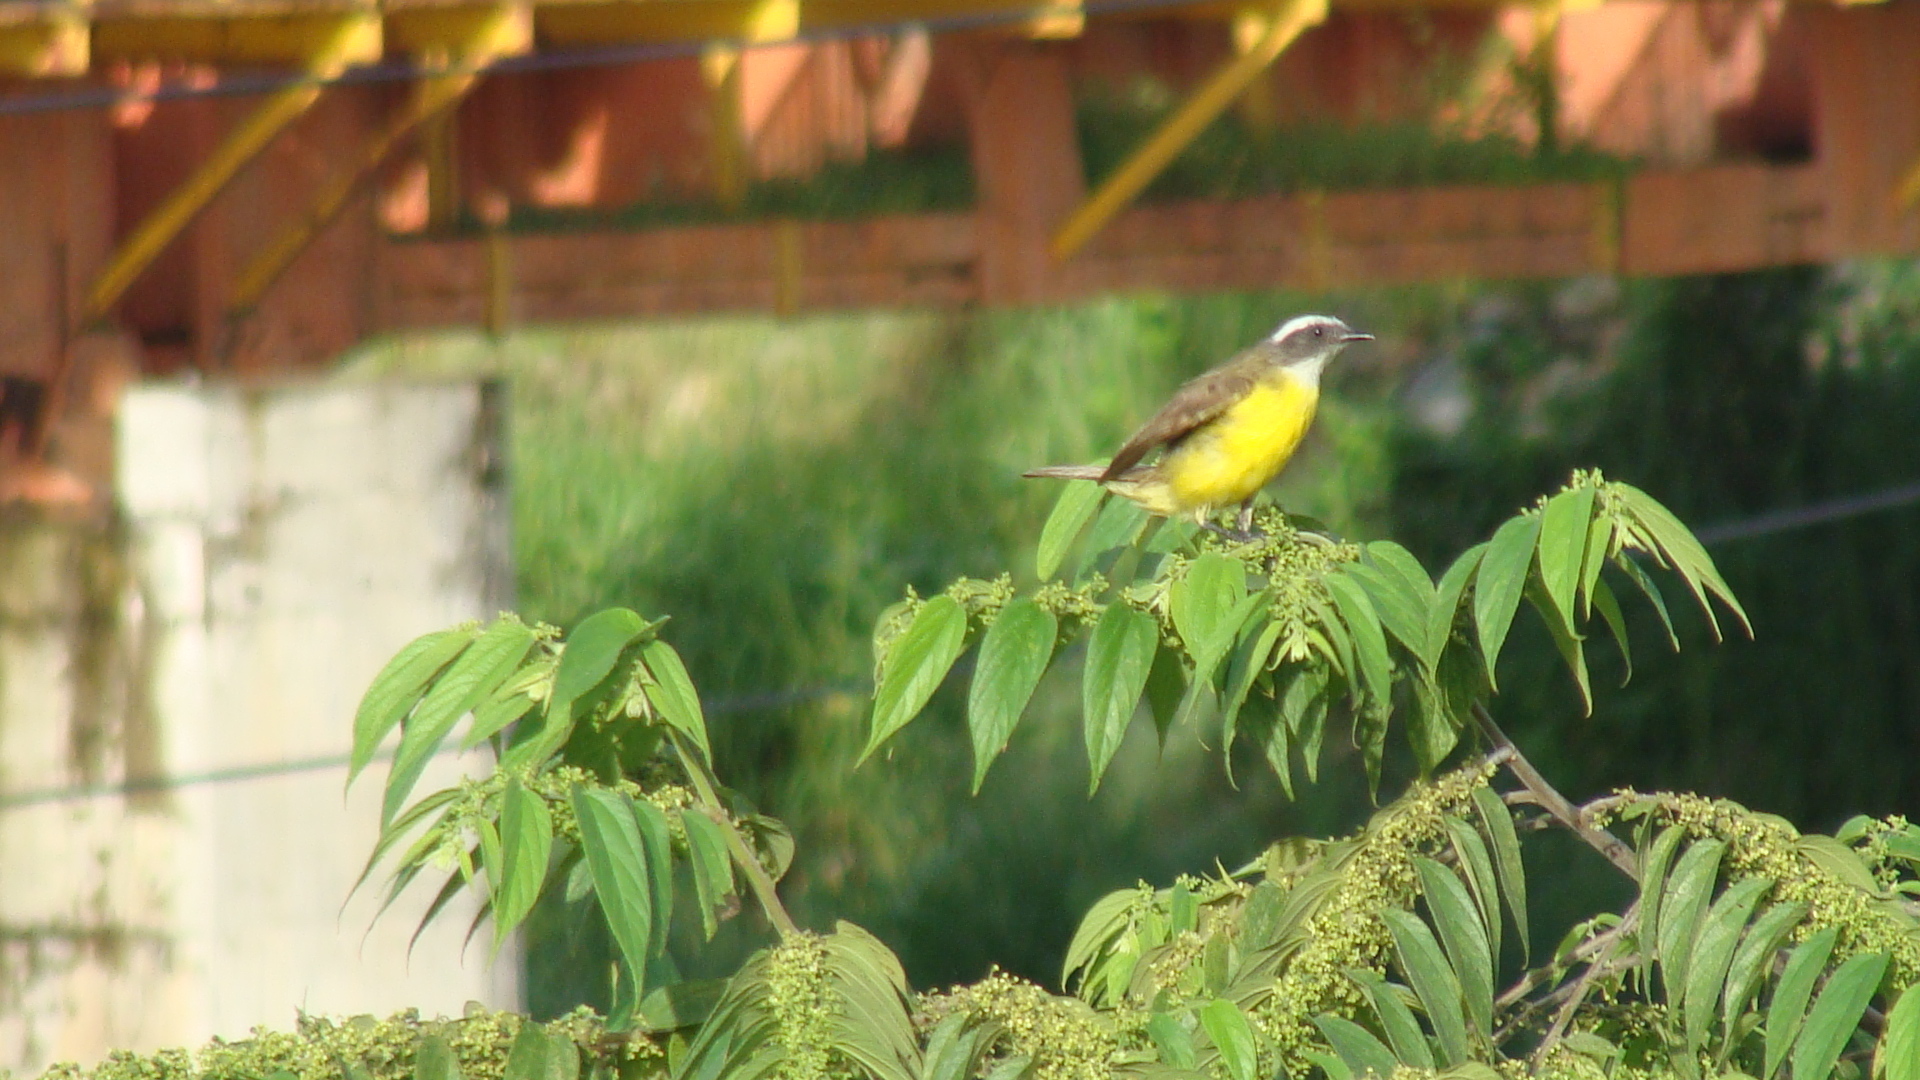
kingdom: Animalia
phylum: Chordata
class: Aves
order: Passeriformes
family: Tyrannidae
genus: Myiozetetes
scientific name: Myiozetetes similis
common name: Social flycatcher
